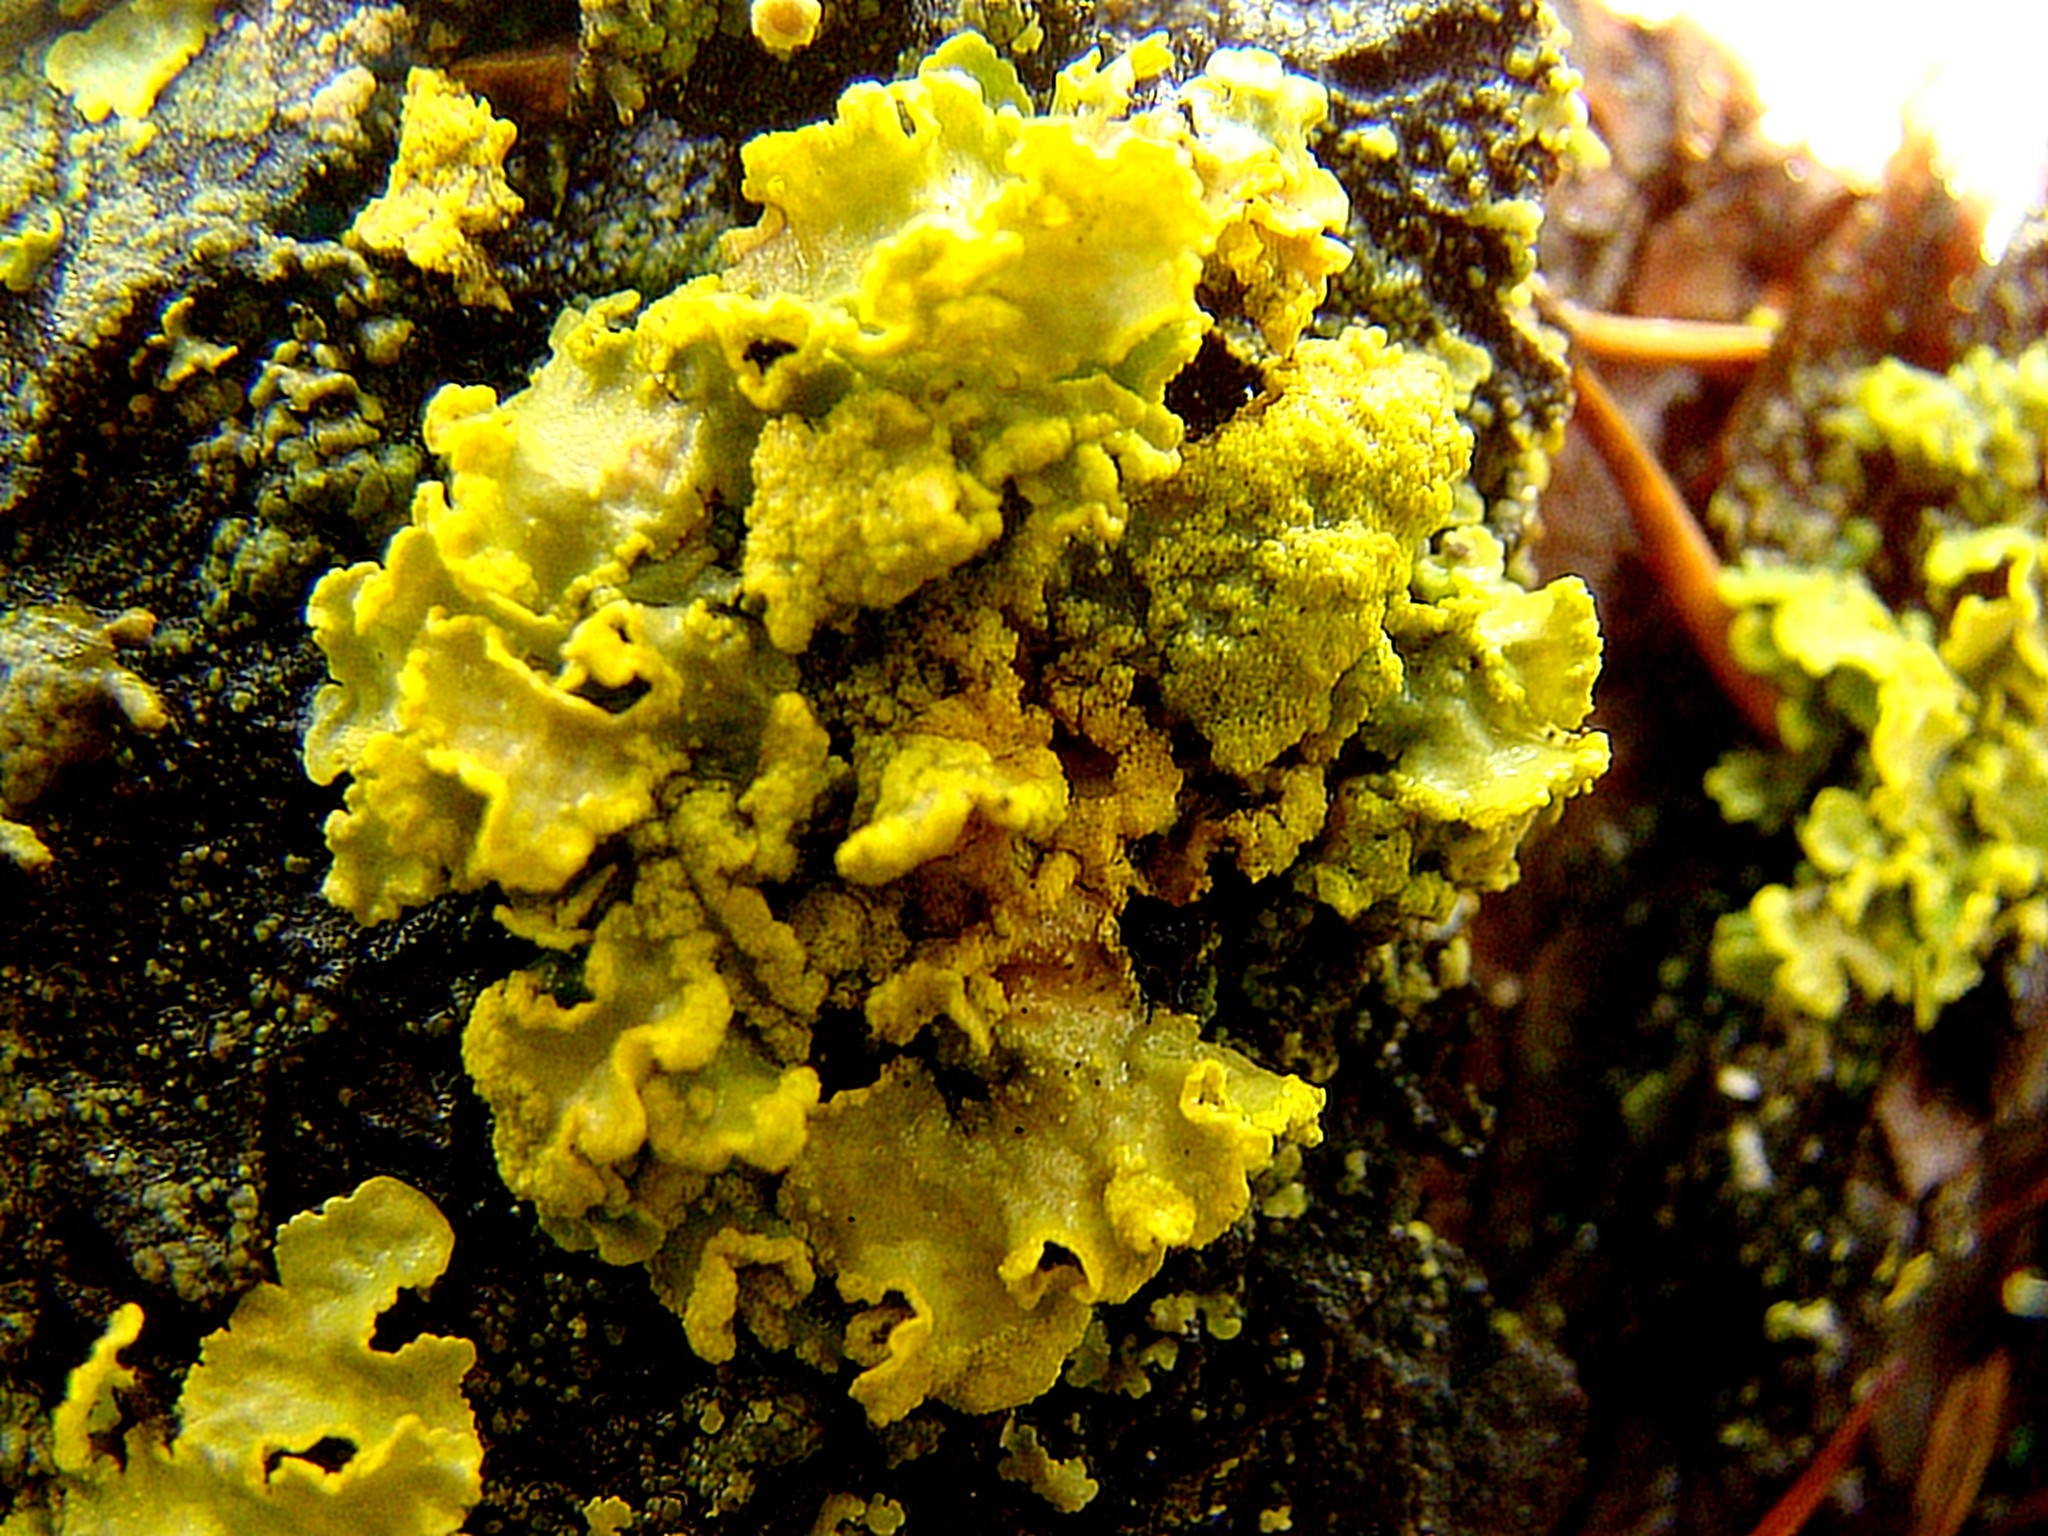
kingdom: Fungi
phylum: Ascomycota
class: Lecanoromycetes
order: Lecanorales
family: Parmeliaceae
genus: Vulpicida
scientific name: Vulpicida pinastri
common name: Powdered sunshine lichen
